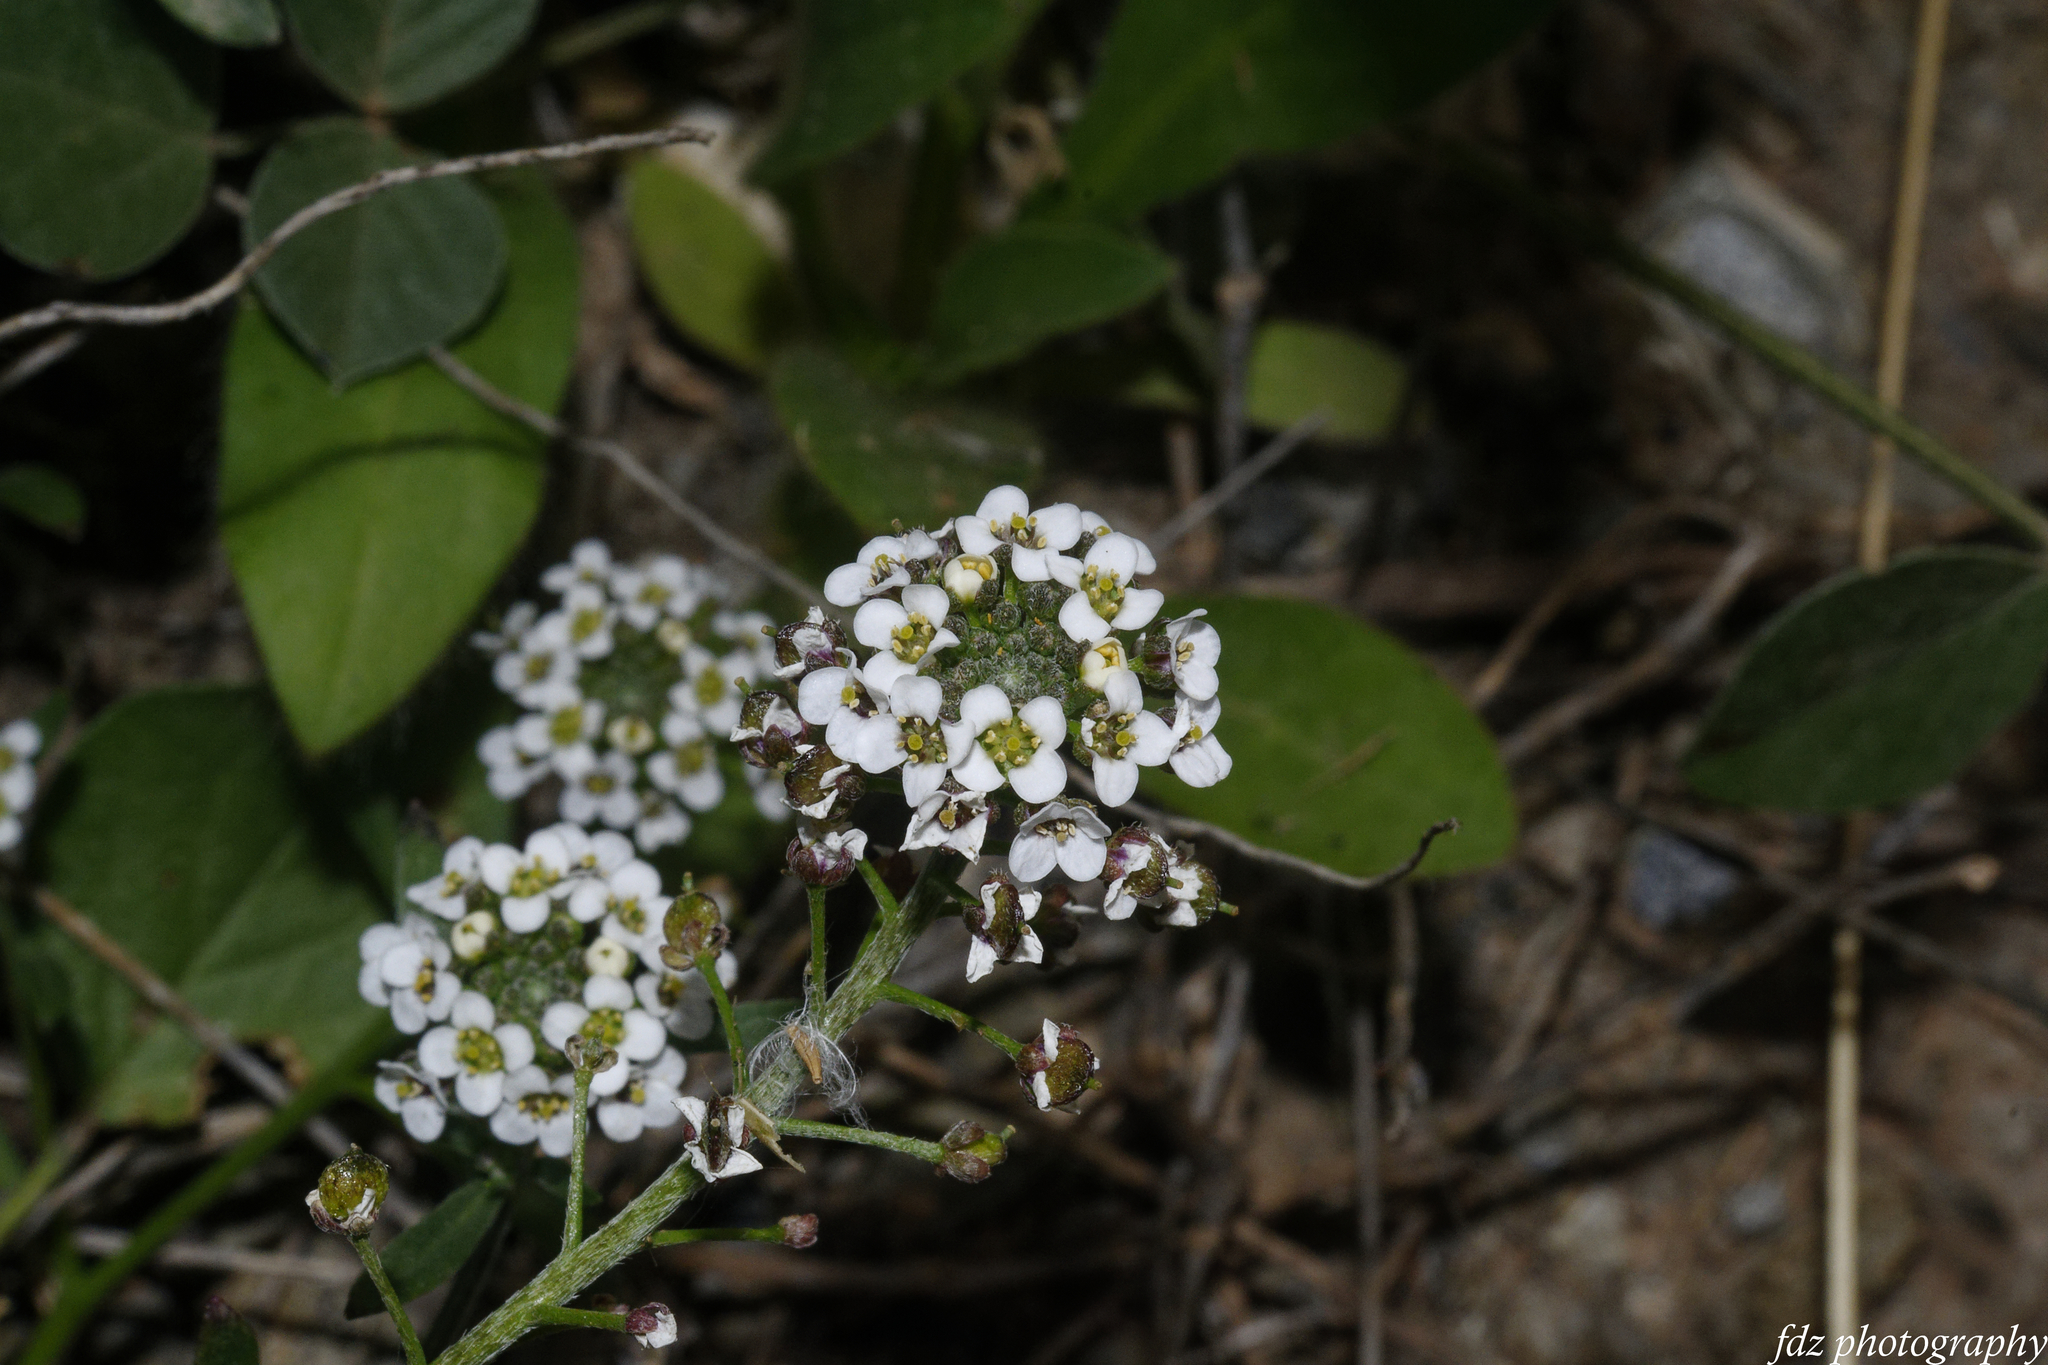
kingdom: Plantae
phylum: Tracheophyta
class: Magnoliopsida
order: Brassicales
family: Brassicaceae
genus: Lobularia
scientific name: Lobularia maritima
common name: Sweet alison
